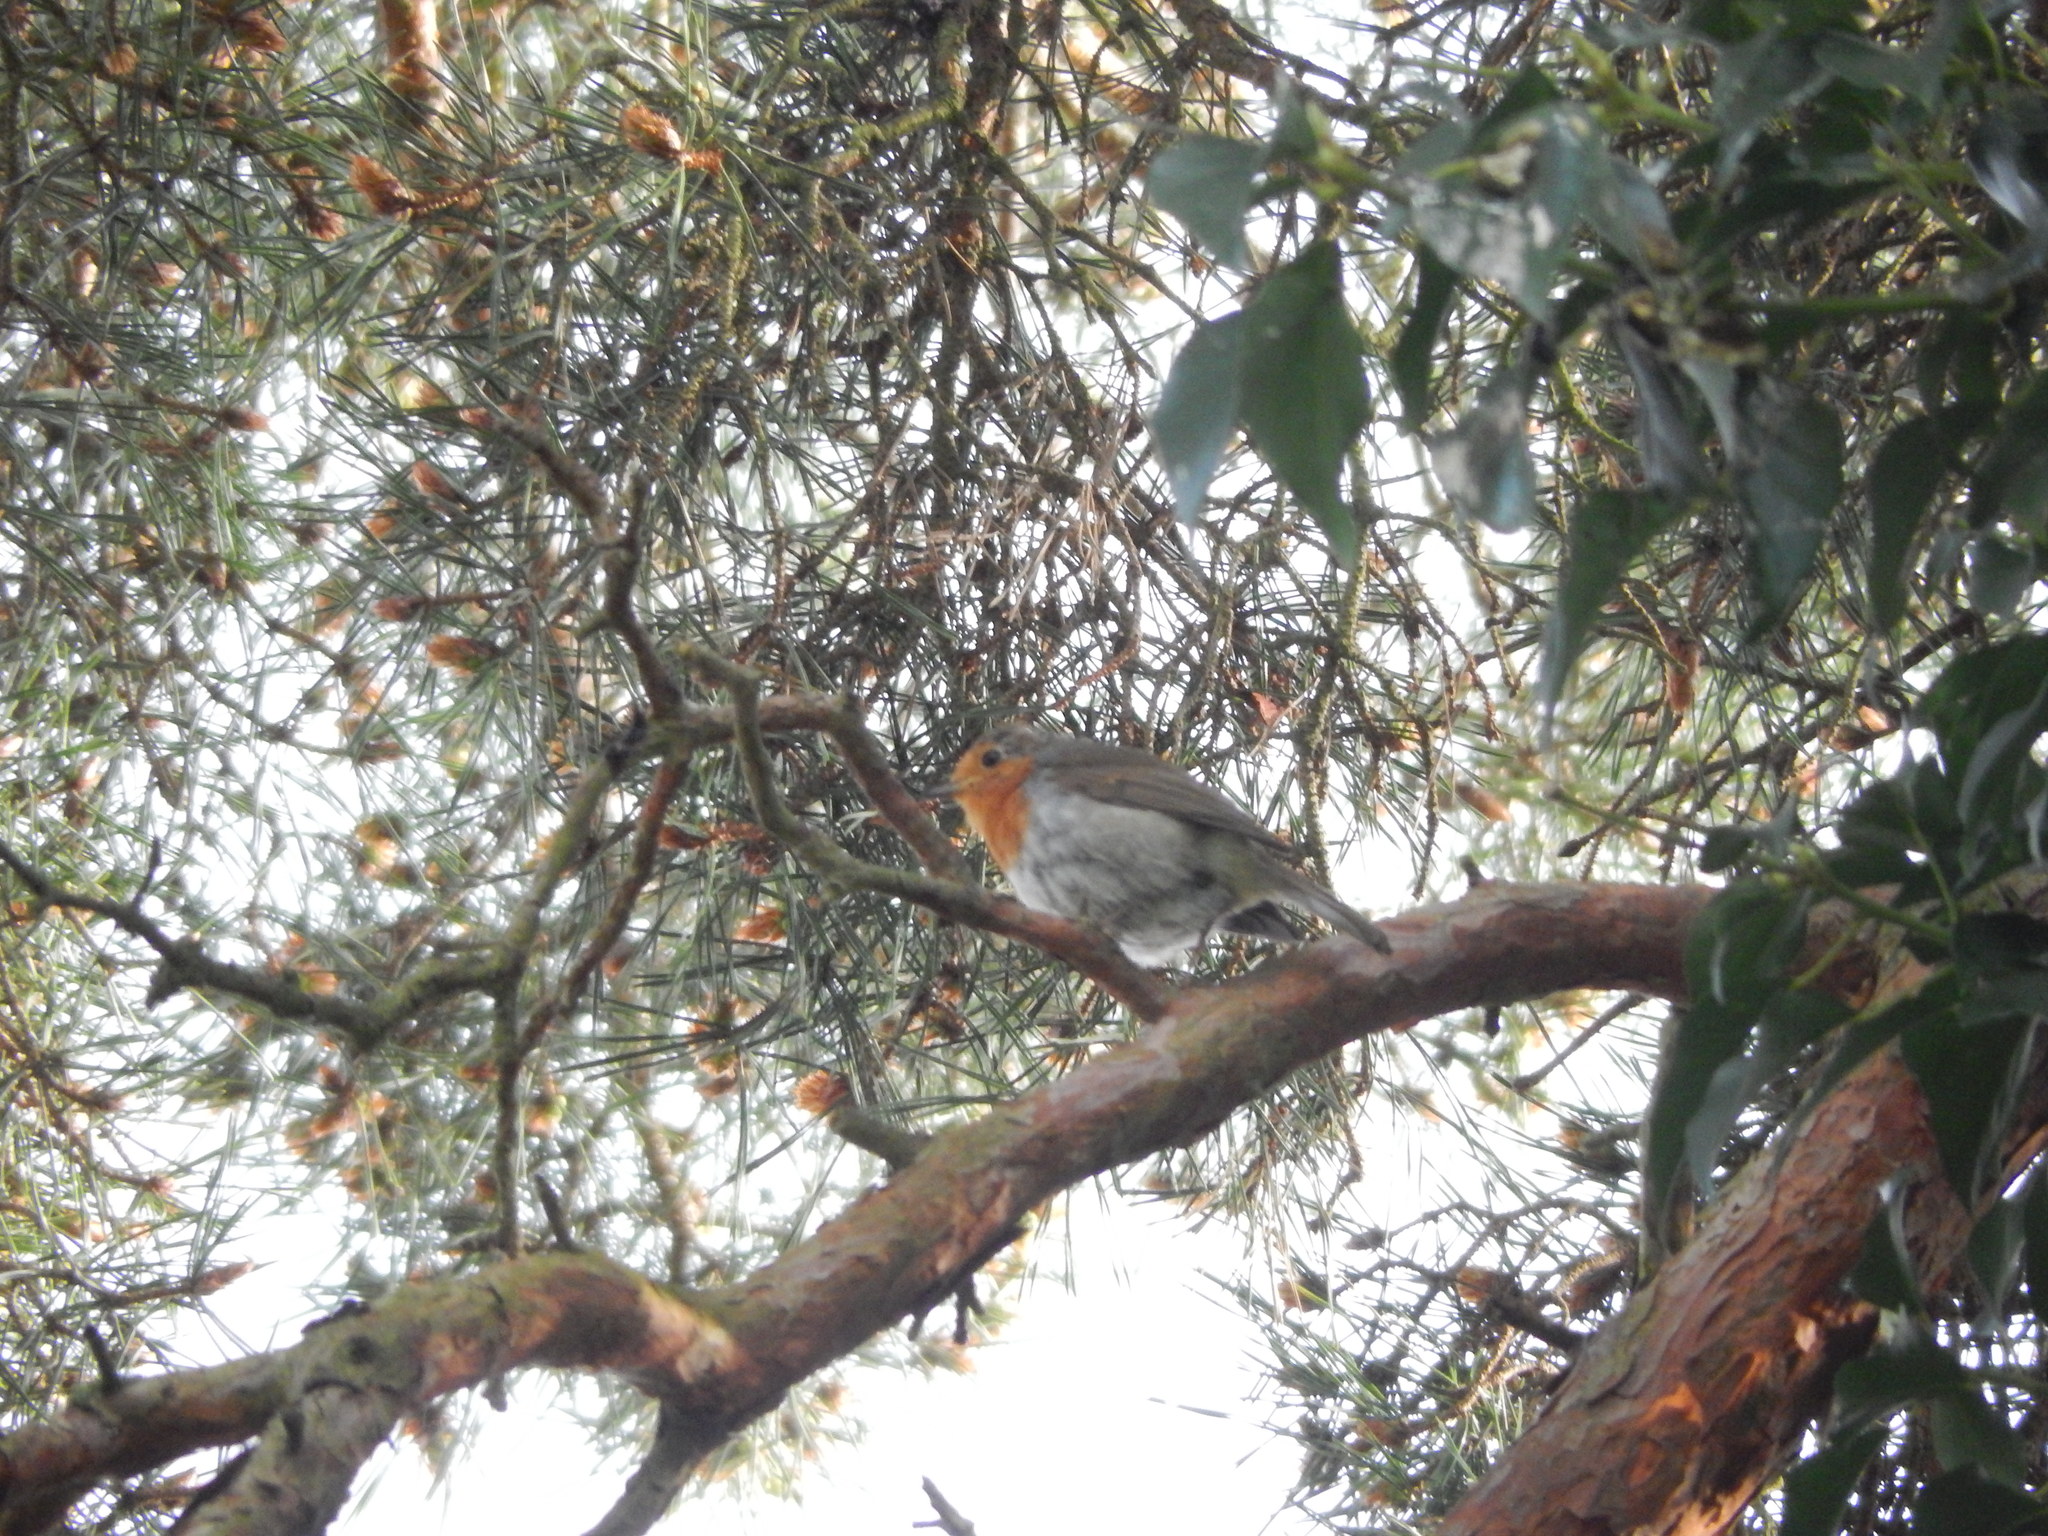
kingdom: Animalia
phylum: Chordata
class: Aves
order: Passeriformes
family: Muscicapidae
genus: Erithacus
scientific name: Erithacus rubecula
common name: European robin
